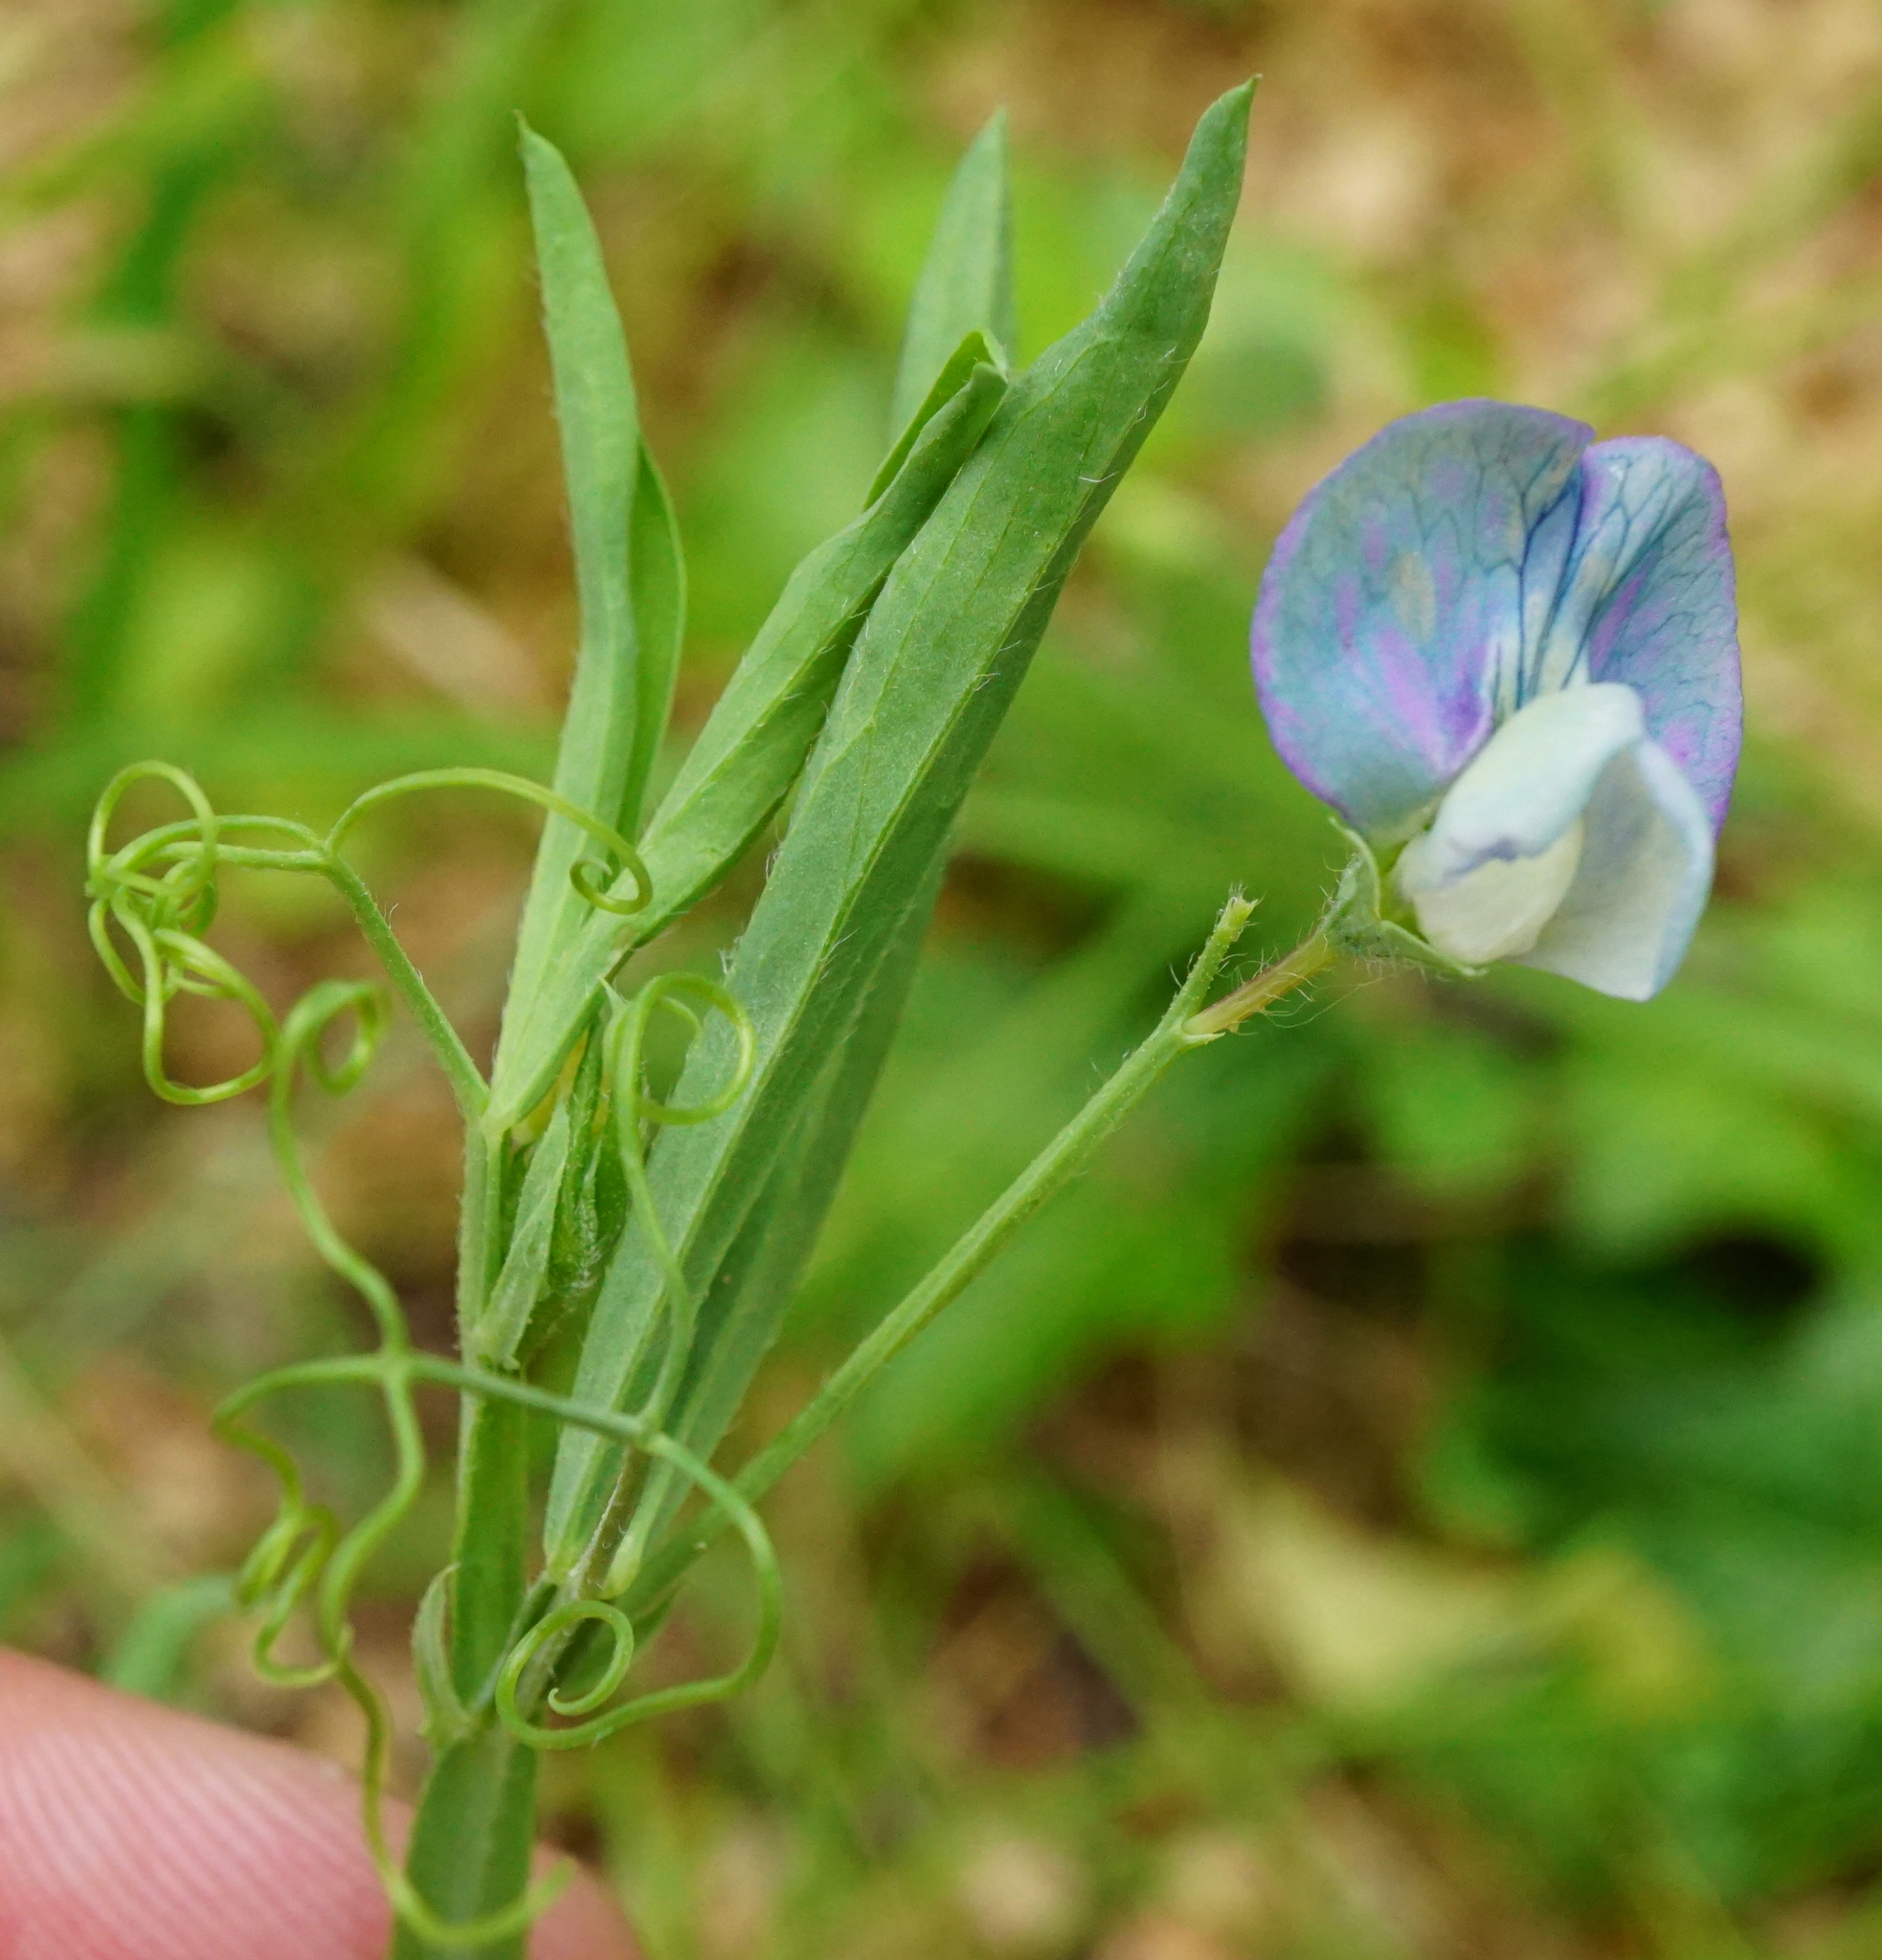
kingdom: Plantae
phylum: Tracheophyta
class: Magnoliopsida
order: Fabales
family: Fabaceae
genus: Lathyrus
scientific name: Lathyrus hirsutus
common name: Hairy vetchling
